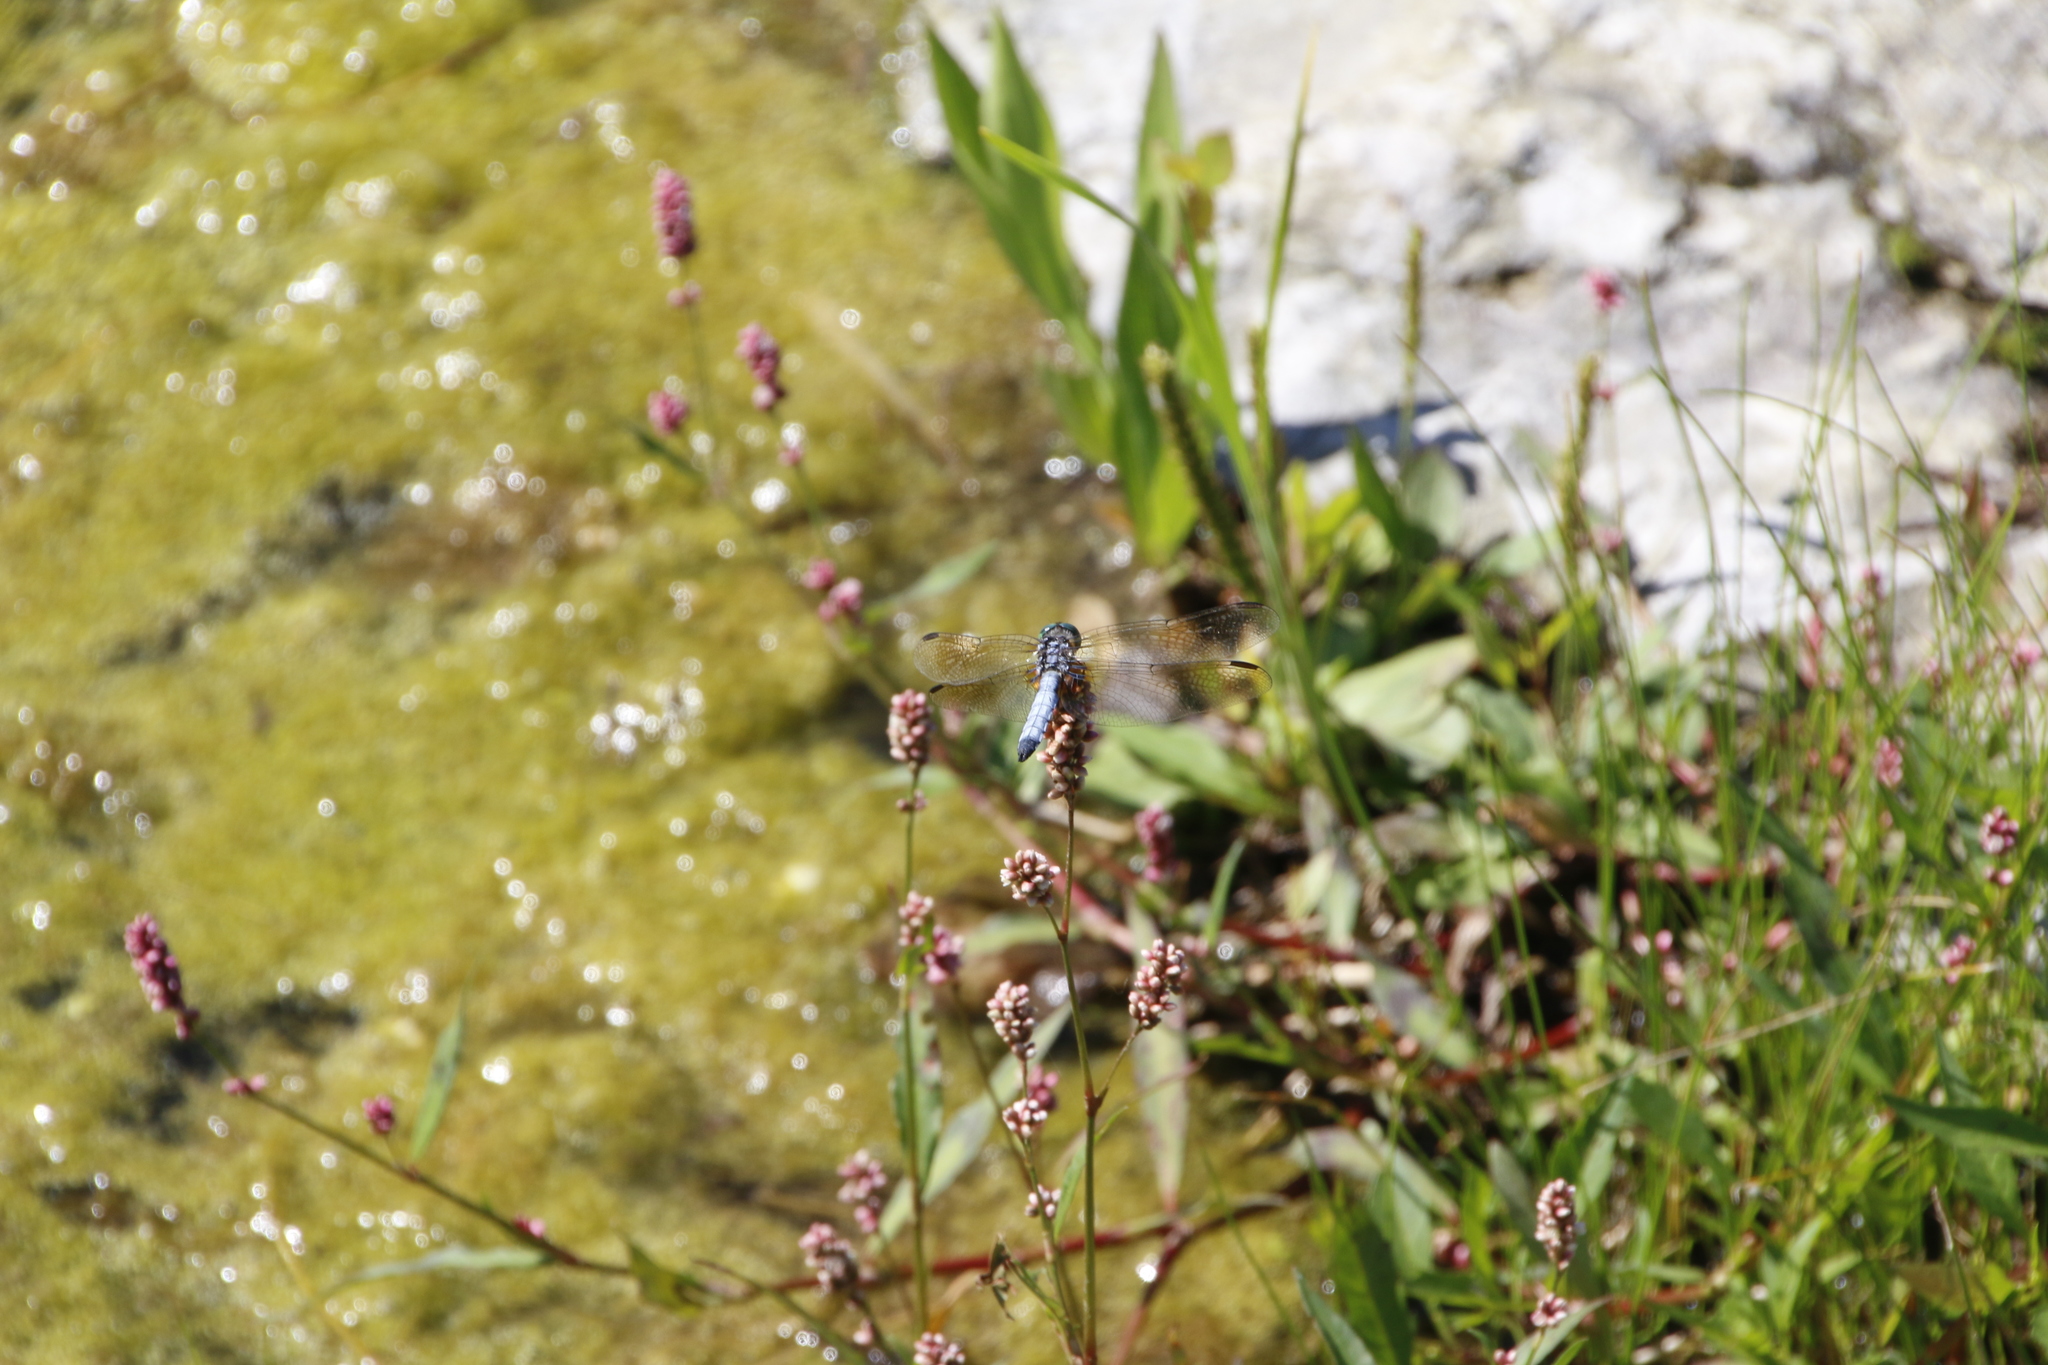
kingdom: Animalia
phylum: Arthropoda
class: Insecta
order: Odonata
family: Libellulidae
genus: Pachydiplax
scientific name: Pachydiplax longipennis
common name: Blue dasher
